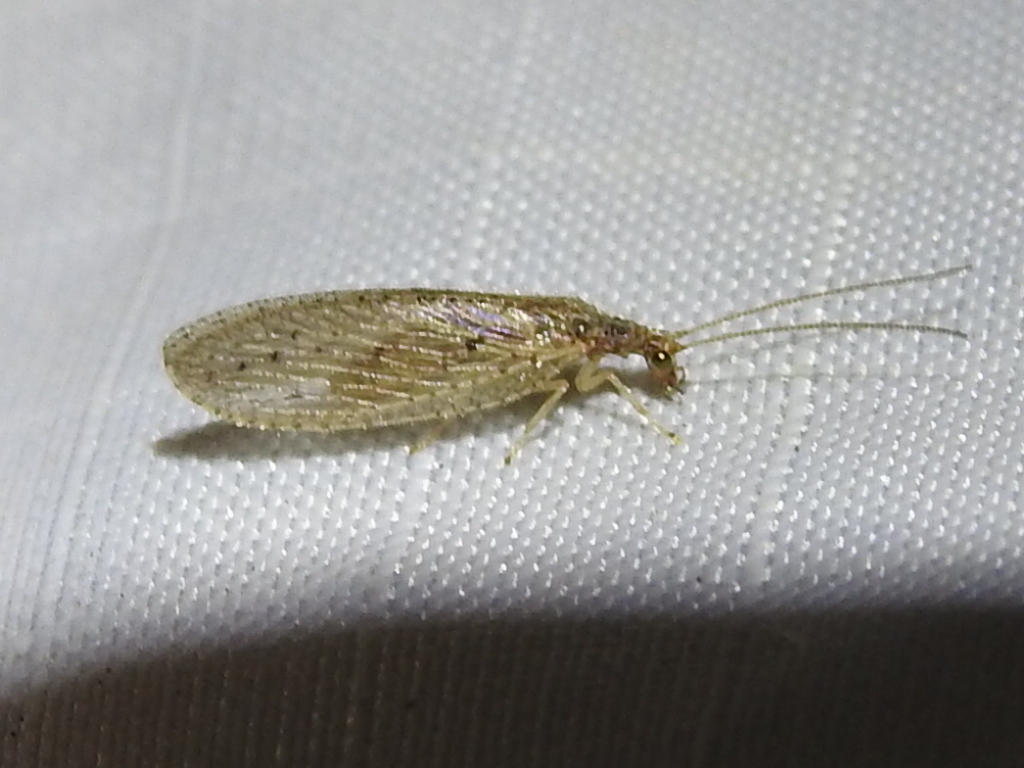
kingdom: Animalia
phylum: Arthropoda
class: Insecta
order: Neuroptera
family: Hemerobiidae
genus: Micromus
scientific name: Micromus subanticus
